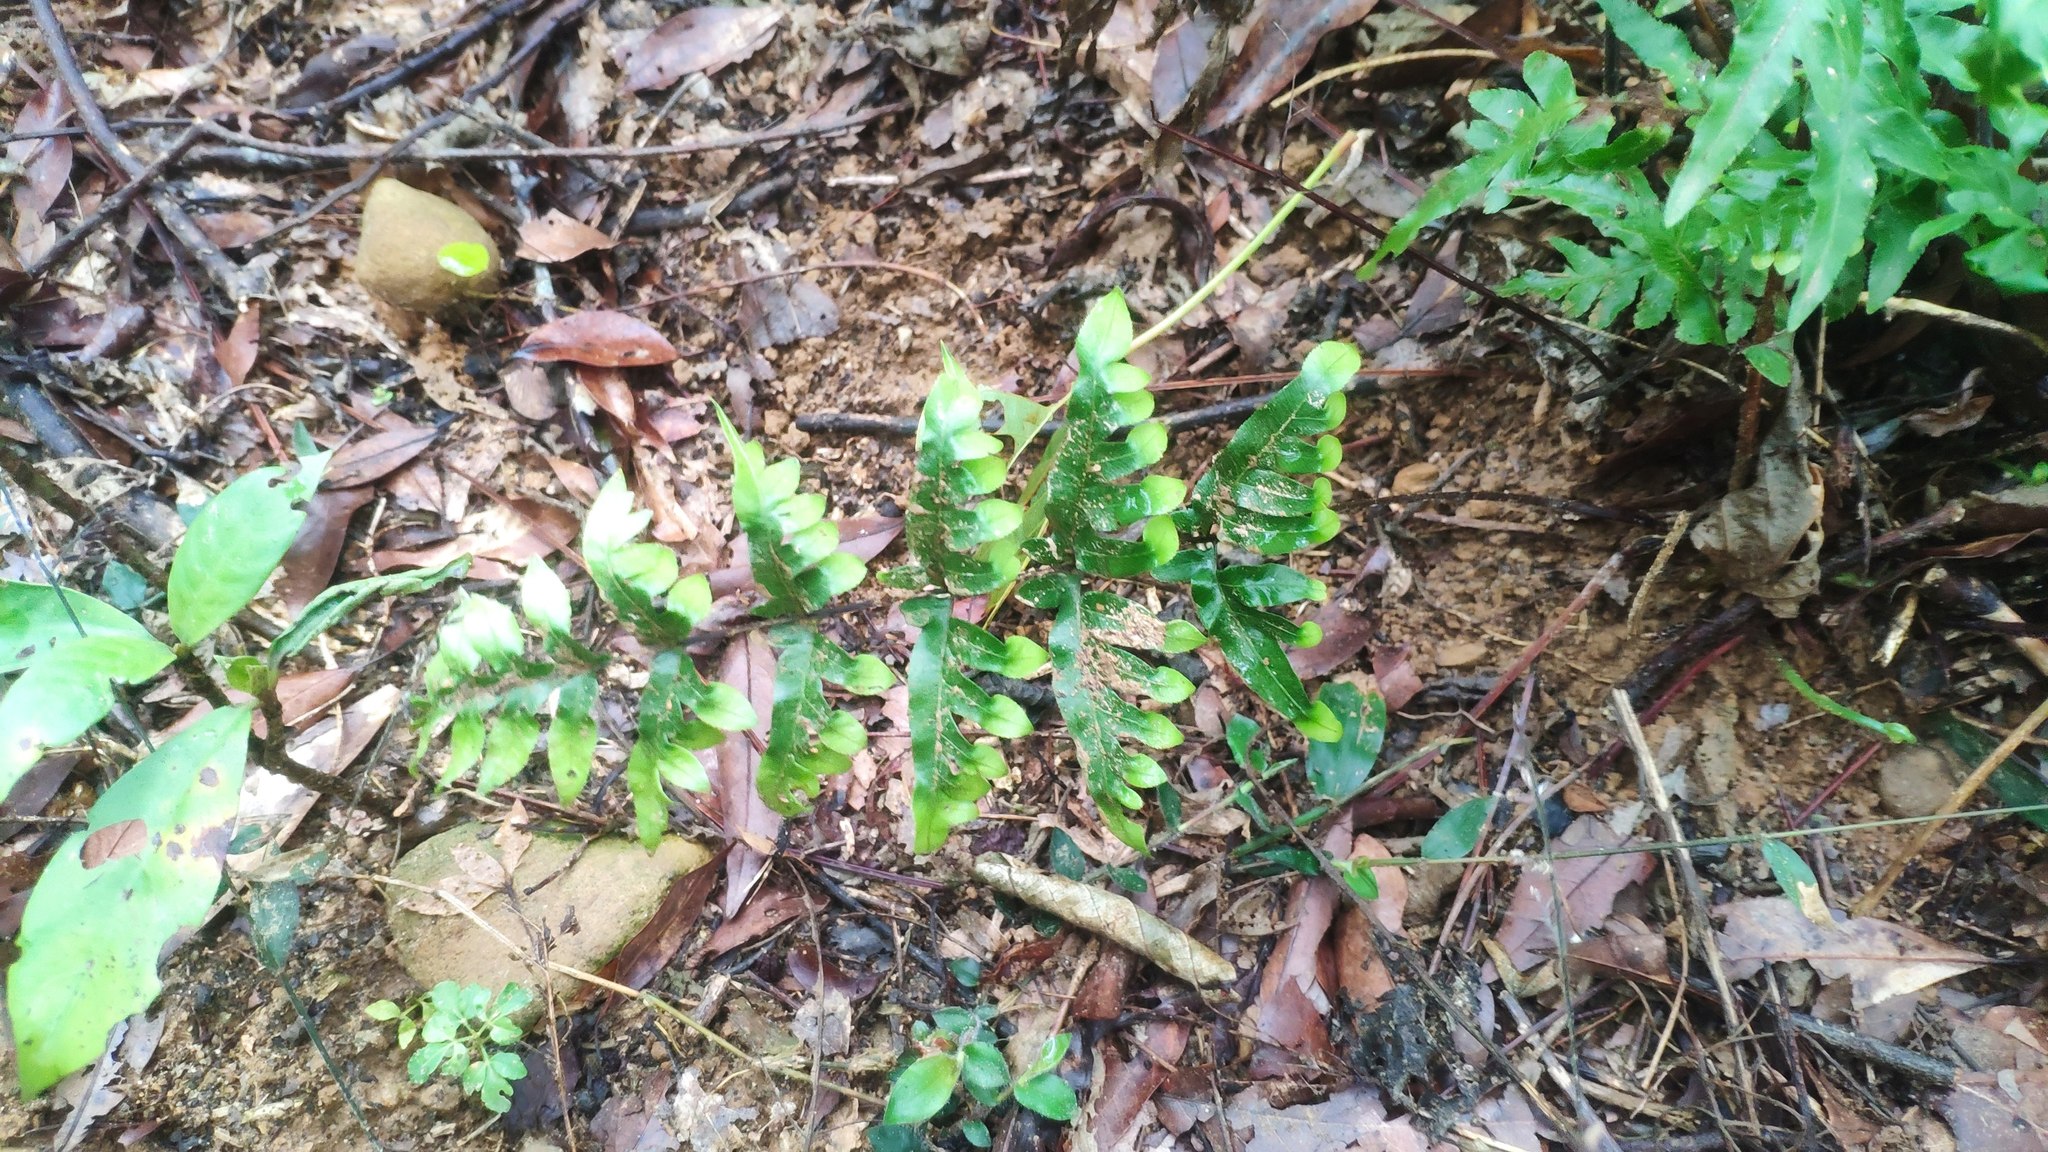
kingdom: Plantae
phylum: Tracheophyta
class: Polypodiopsida
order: Polypodiales
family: Pteridaceae
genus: Pteris
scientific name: Pteris semipinnata
